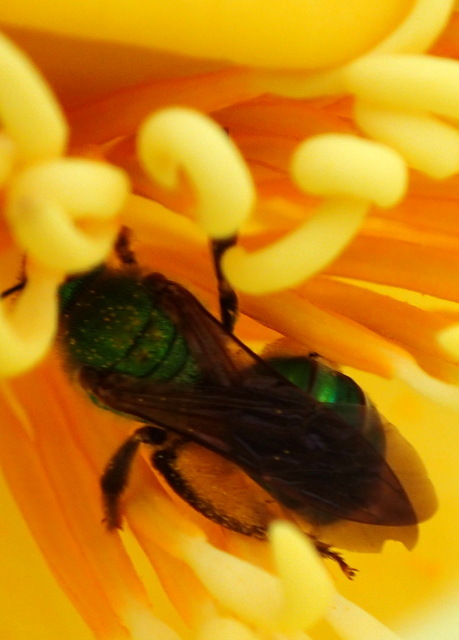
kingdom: Animalia
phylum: Arthropoda
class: Insecta
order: Hymenoptera
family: Halictidae
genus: Agapostemon
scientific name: Agapostemon splendens
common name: Brown-winged striped sweat bee
